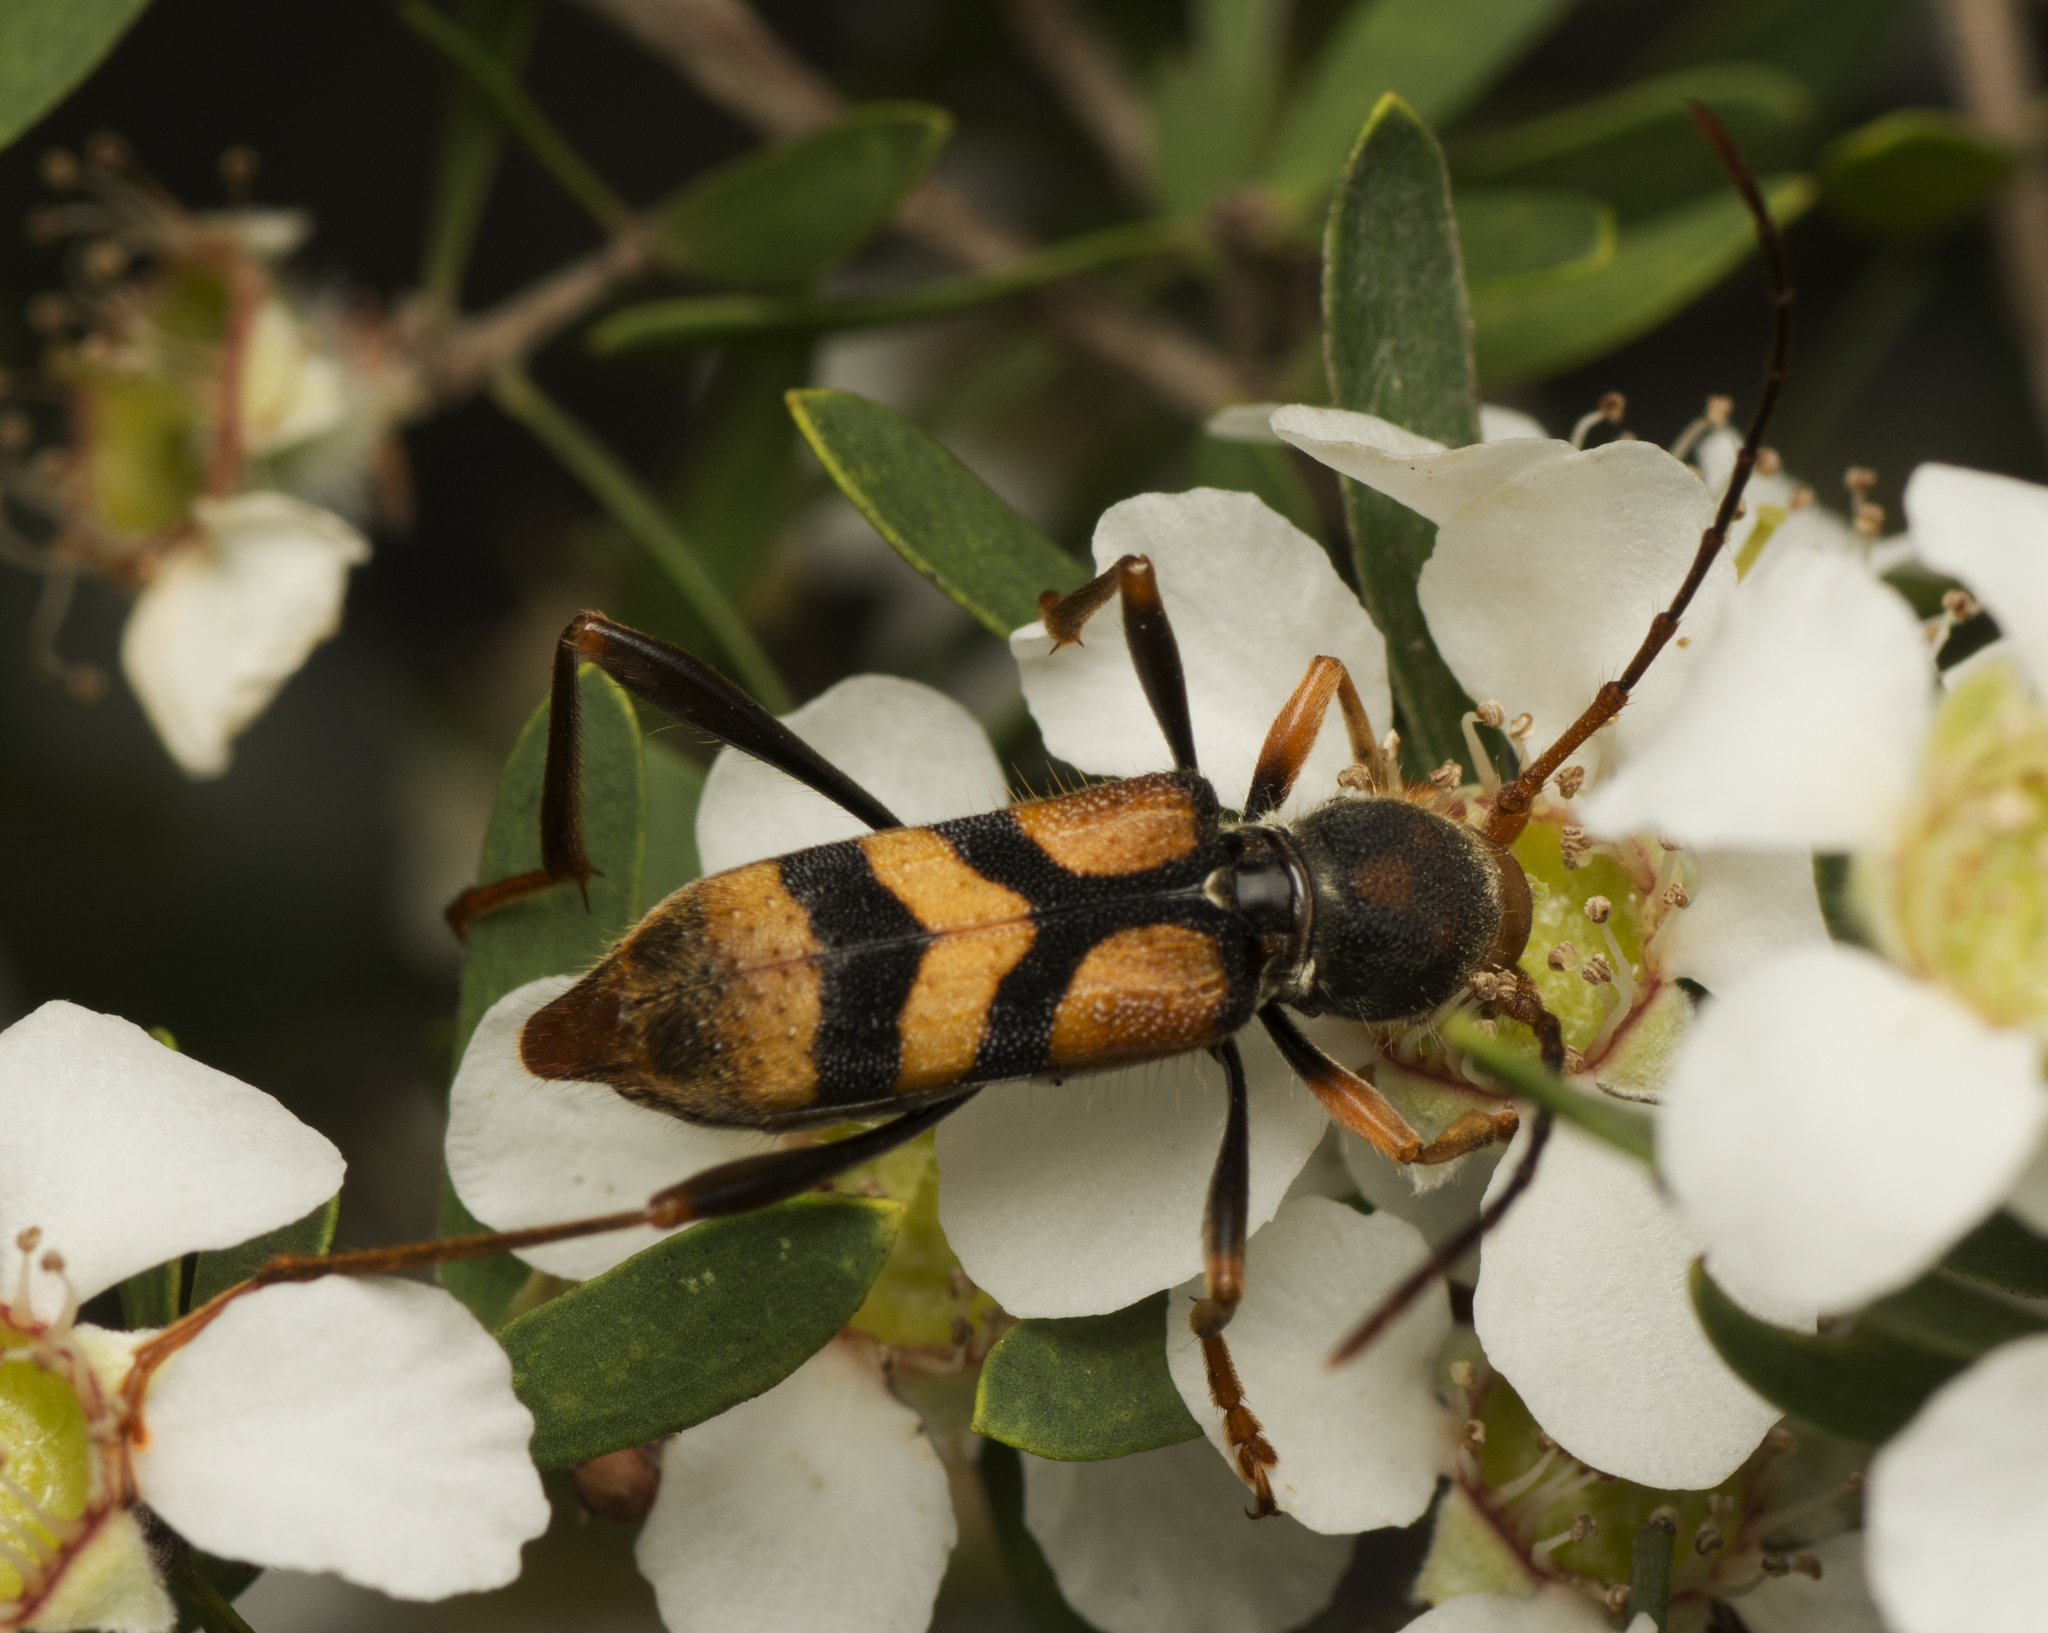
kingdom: Animalia
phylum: Arthropoda
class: Insecta
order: Coleoptera
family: Cerambycidae
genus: Aridaeus
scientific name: Aridaeus thoracicus
